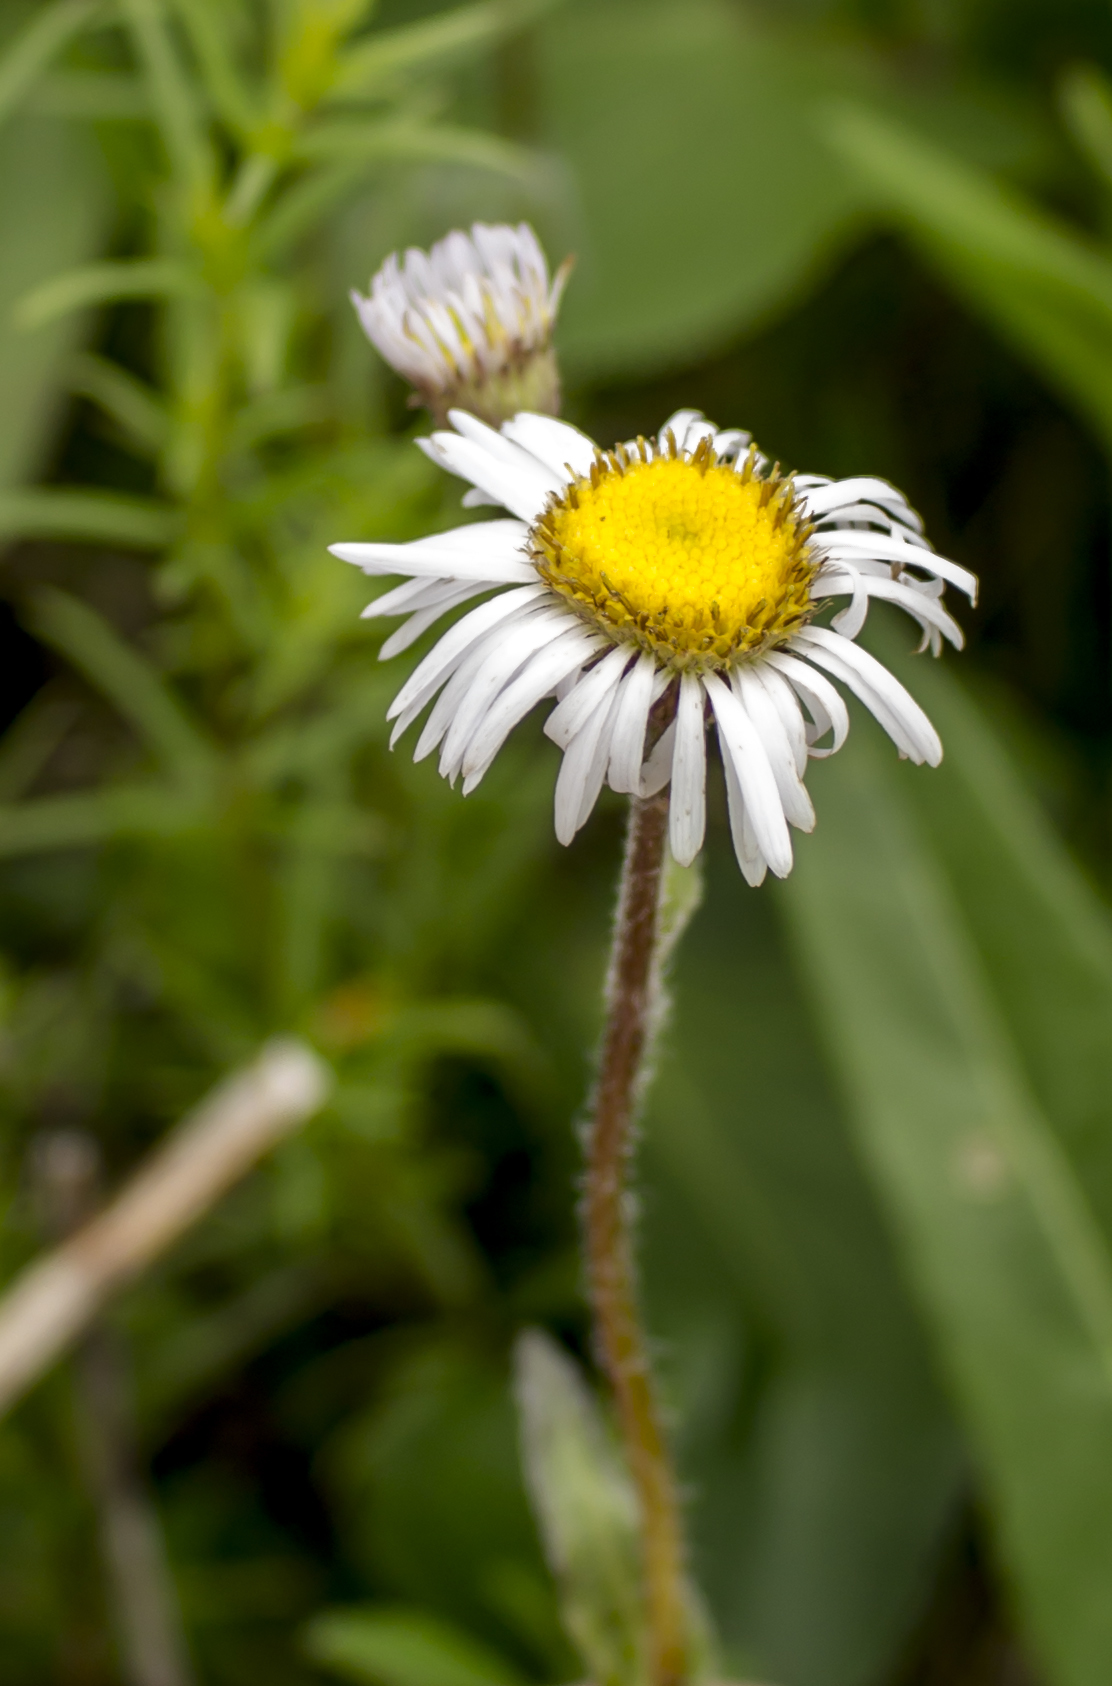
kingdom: Plantae
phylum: Tracheophyta
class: Magnoliopsida
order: Asterales
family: Asteraceae
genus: Erigeron
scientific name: Erigeron pulchellus
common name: Hairy fleabane
